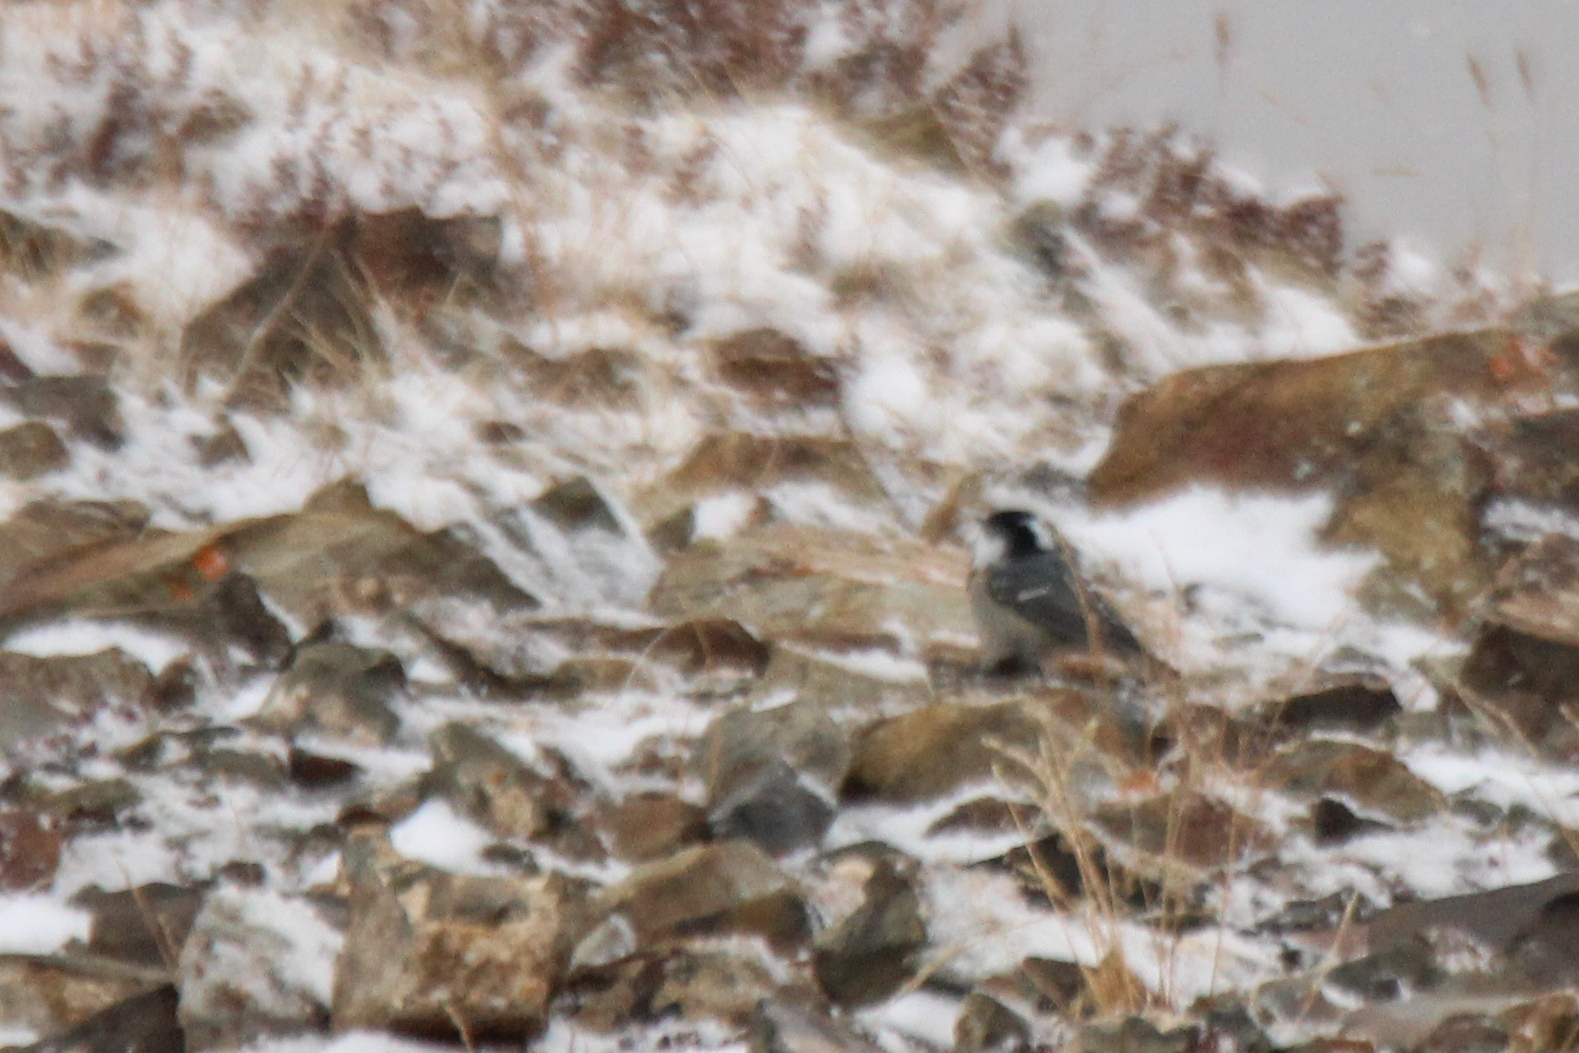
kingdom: Animalia
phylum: Chordata
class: Aves
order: Passeriformes
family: Paridae
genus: Periparus
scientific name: Periparus ater
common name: Coal tit
